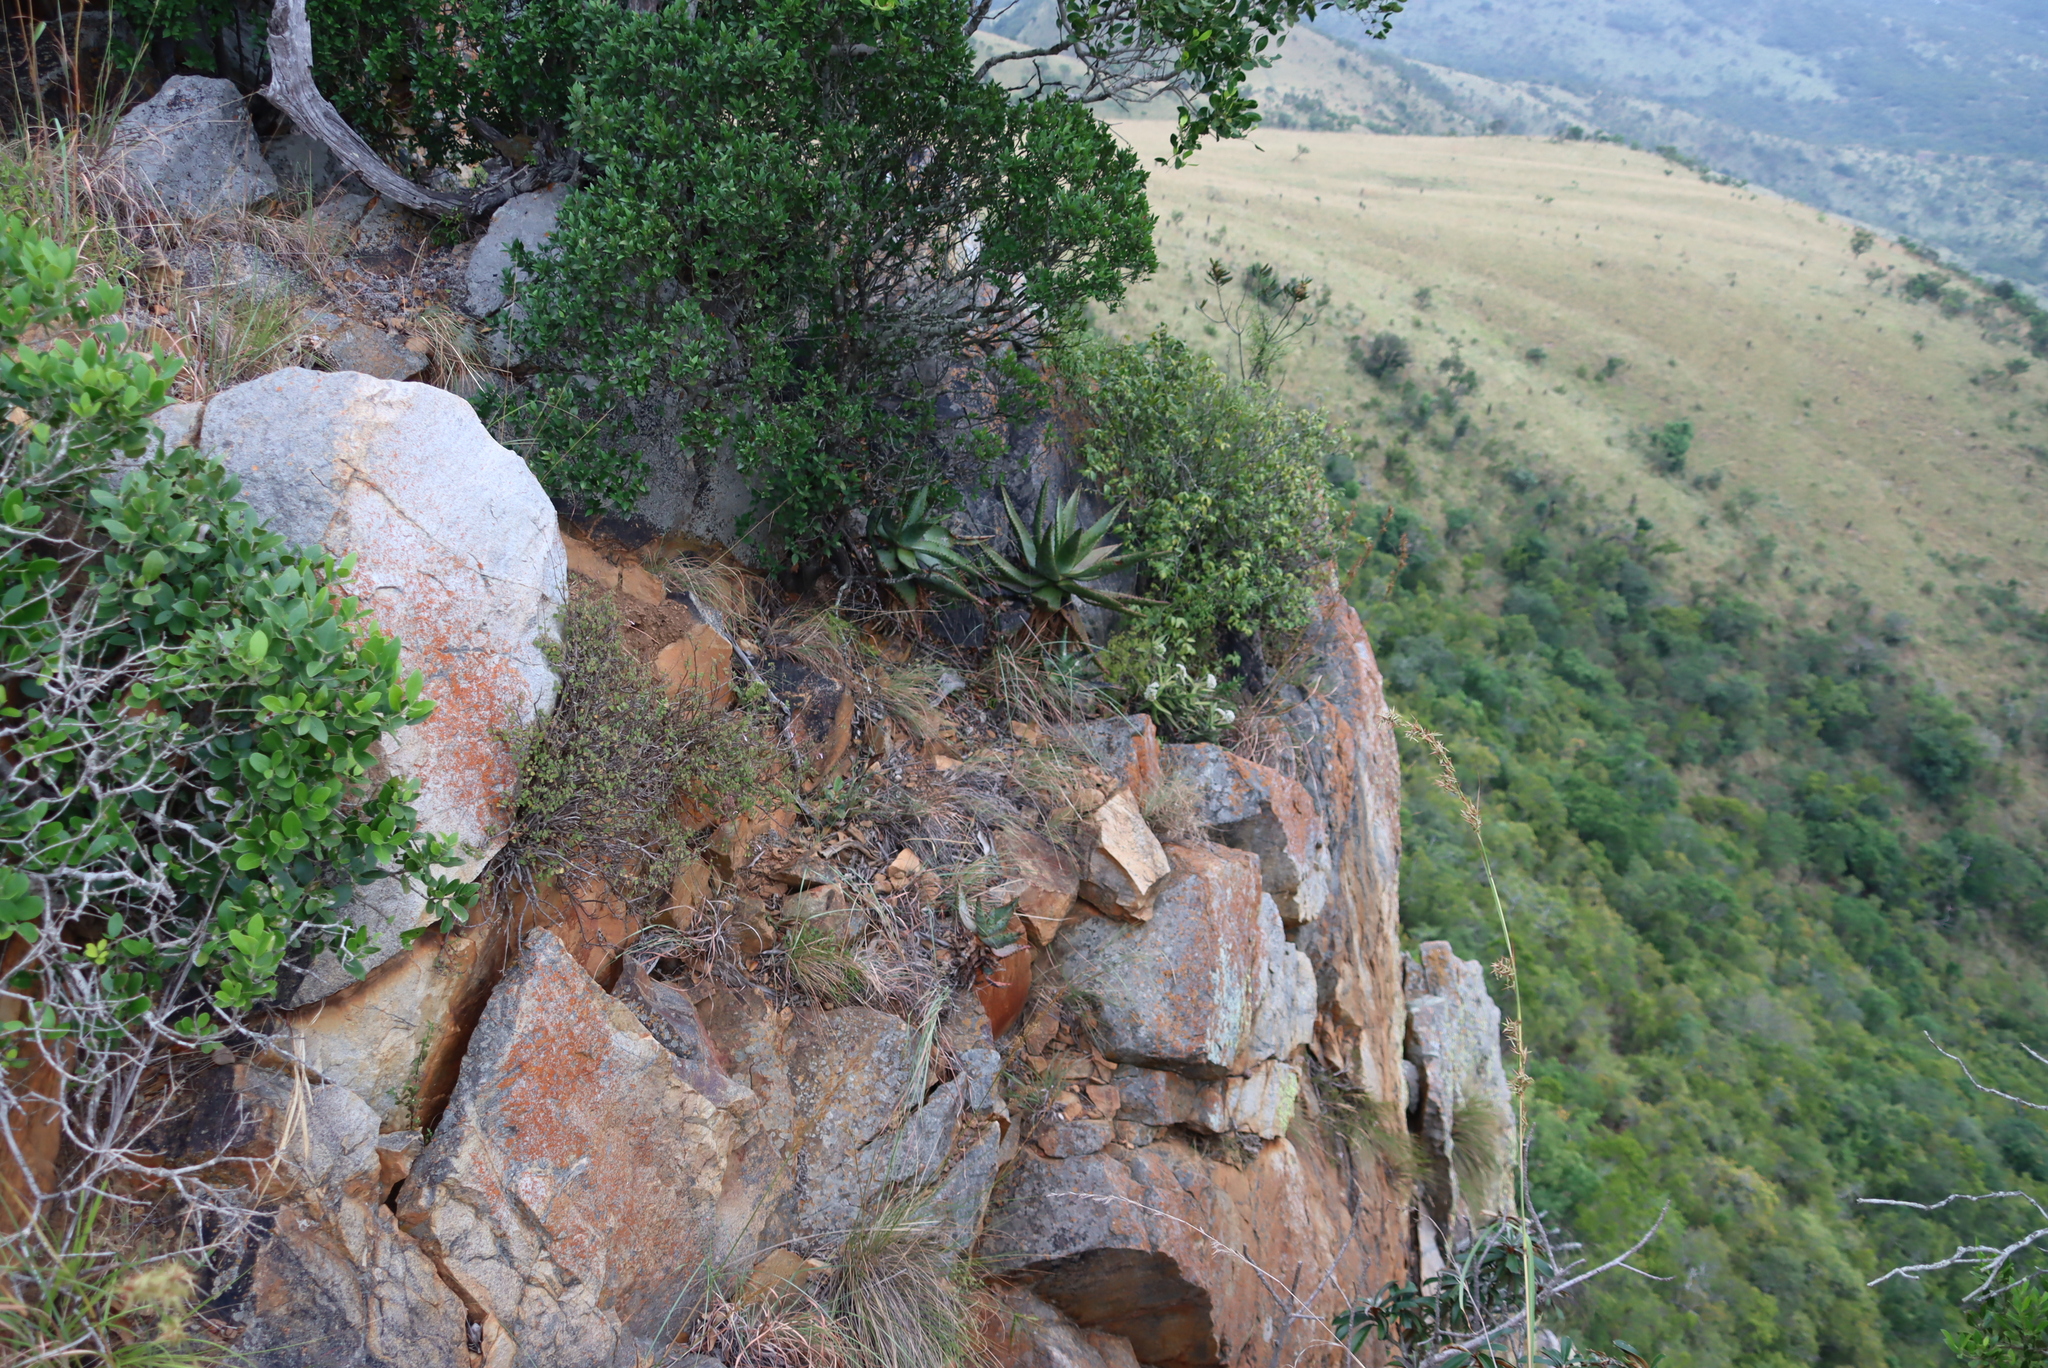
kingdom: Plantae
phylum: Tracheophyta
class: Magnoliopsida
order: Saxifragales
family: Crassulaceae
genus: Crassula
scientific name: Crassula perfoliata
